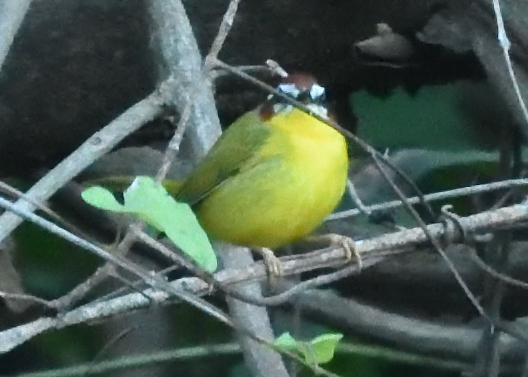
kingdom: Animalia
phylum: Chordata
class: Aves
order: Passeriformes
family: Parulidae
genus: Basileuterus
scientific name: Basileuterus rufifrons
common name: Rufous-capped warbler
